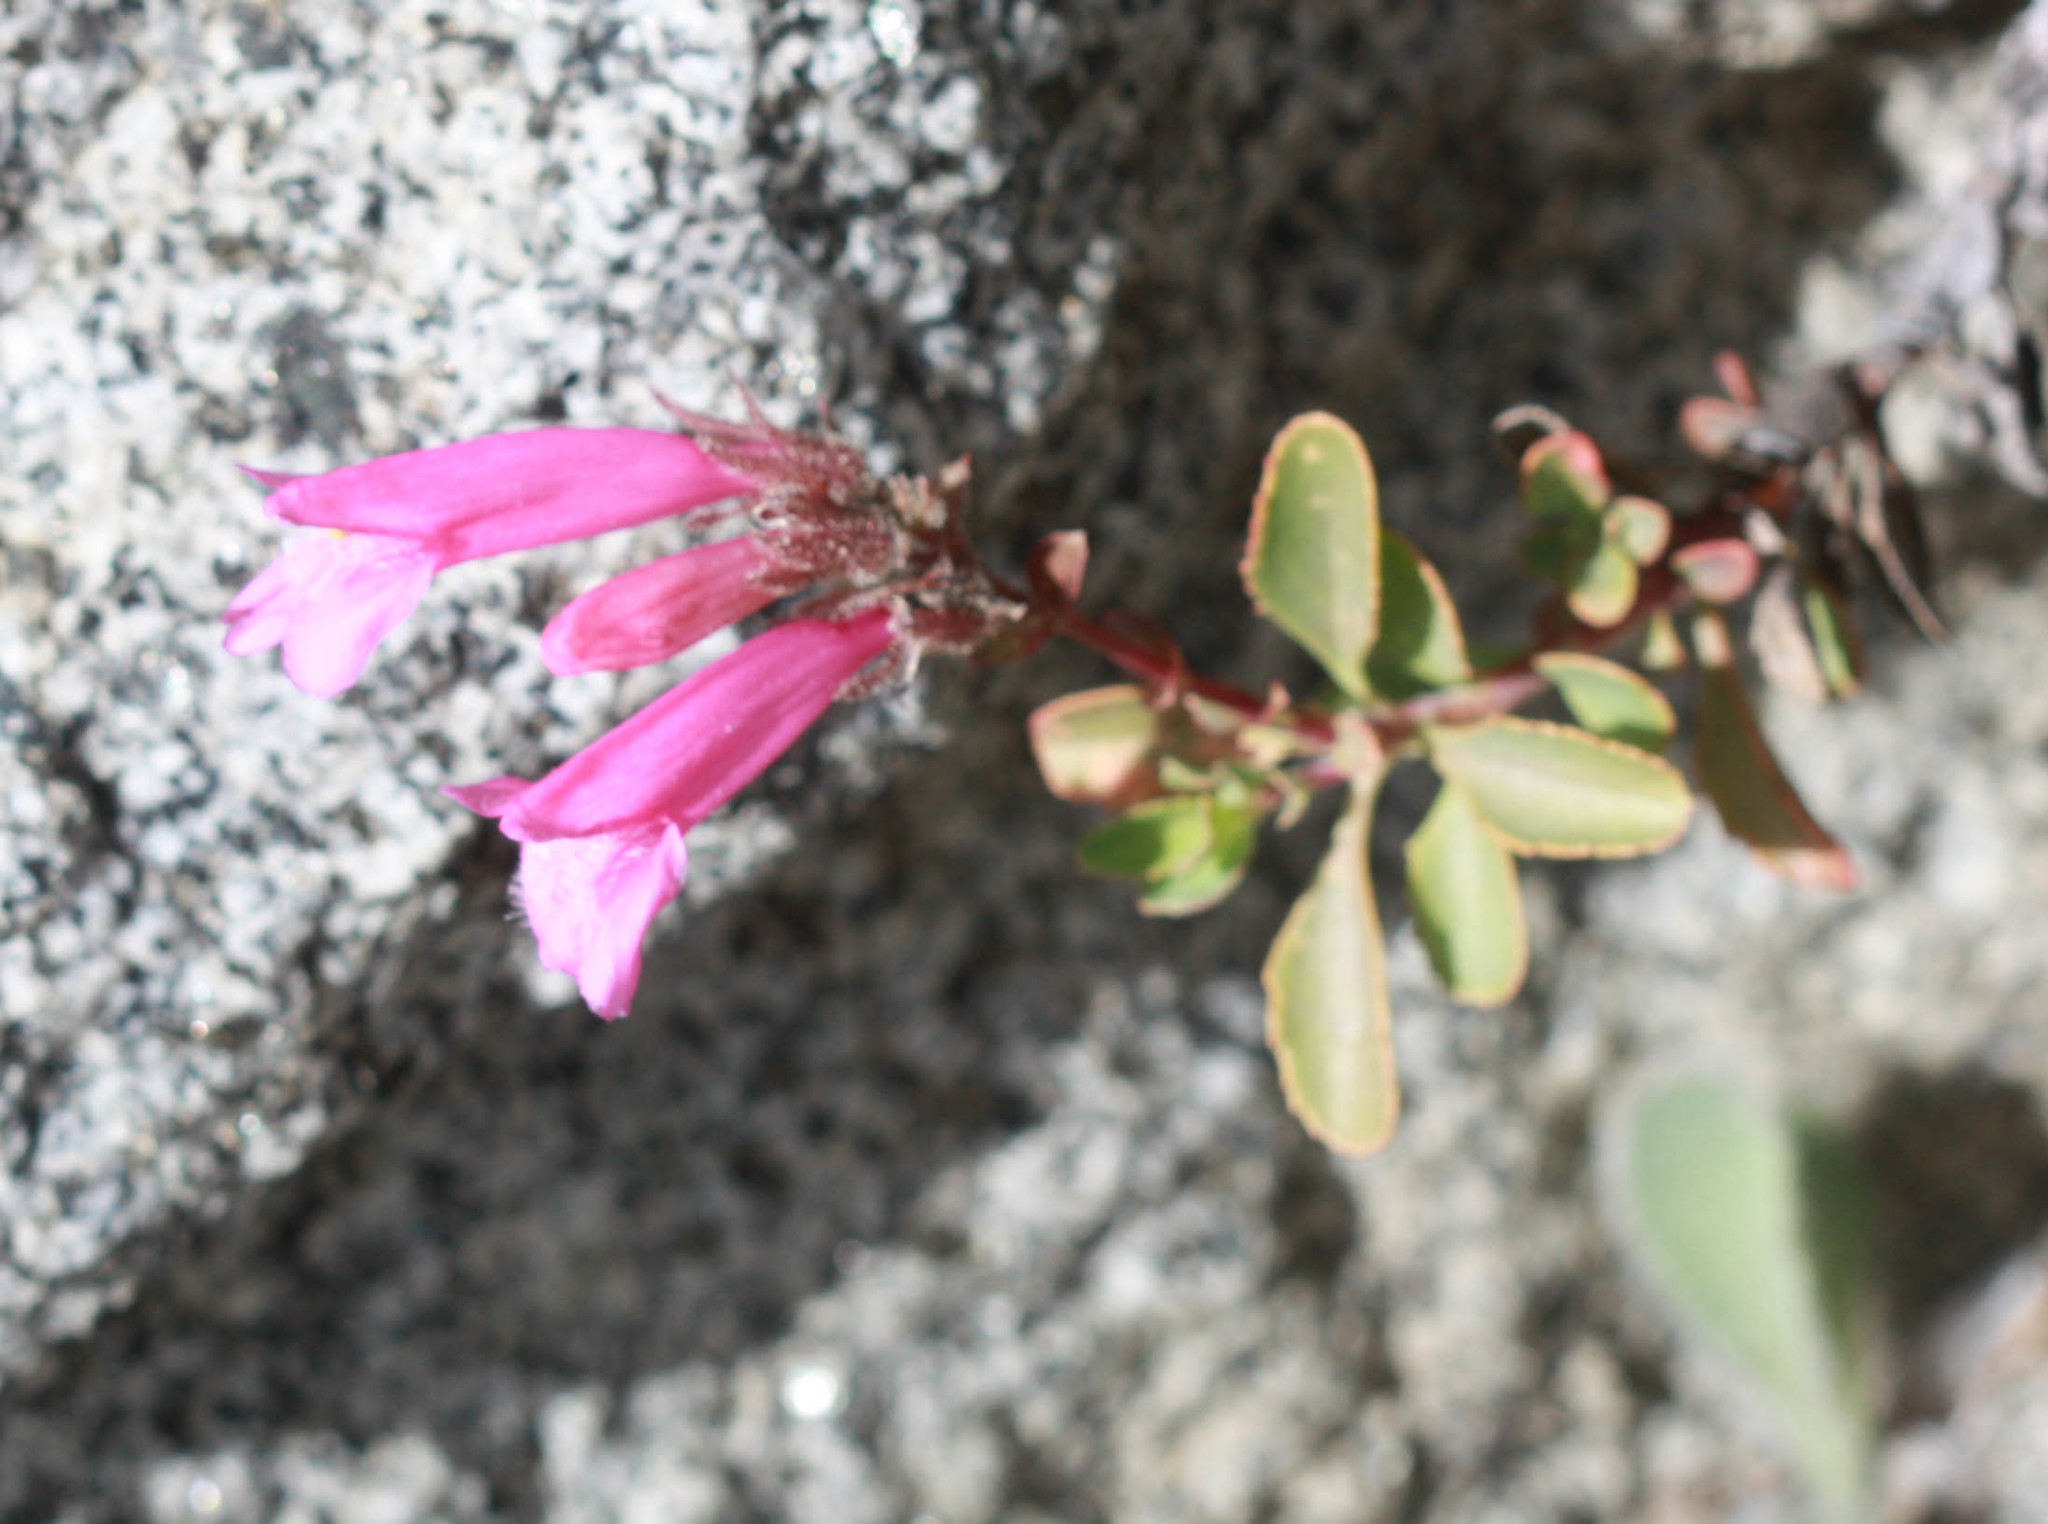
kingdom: Plantae
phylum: Tracheophyta
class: Magnoliopsida
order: Lamiales
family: Plantaginaceae
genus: Penstemon
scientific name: Penstemon newberryi
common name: Mountain-pride
